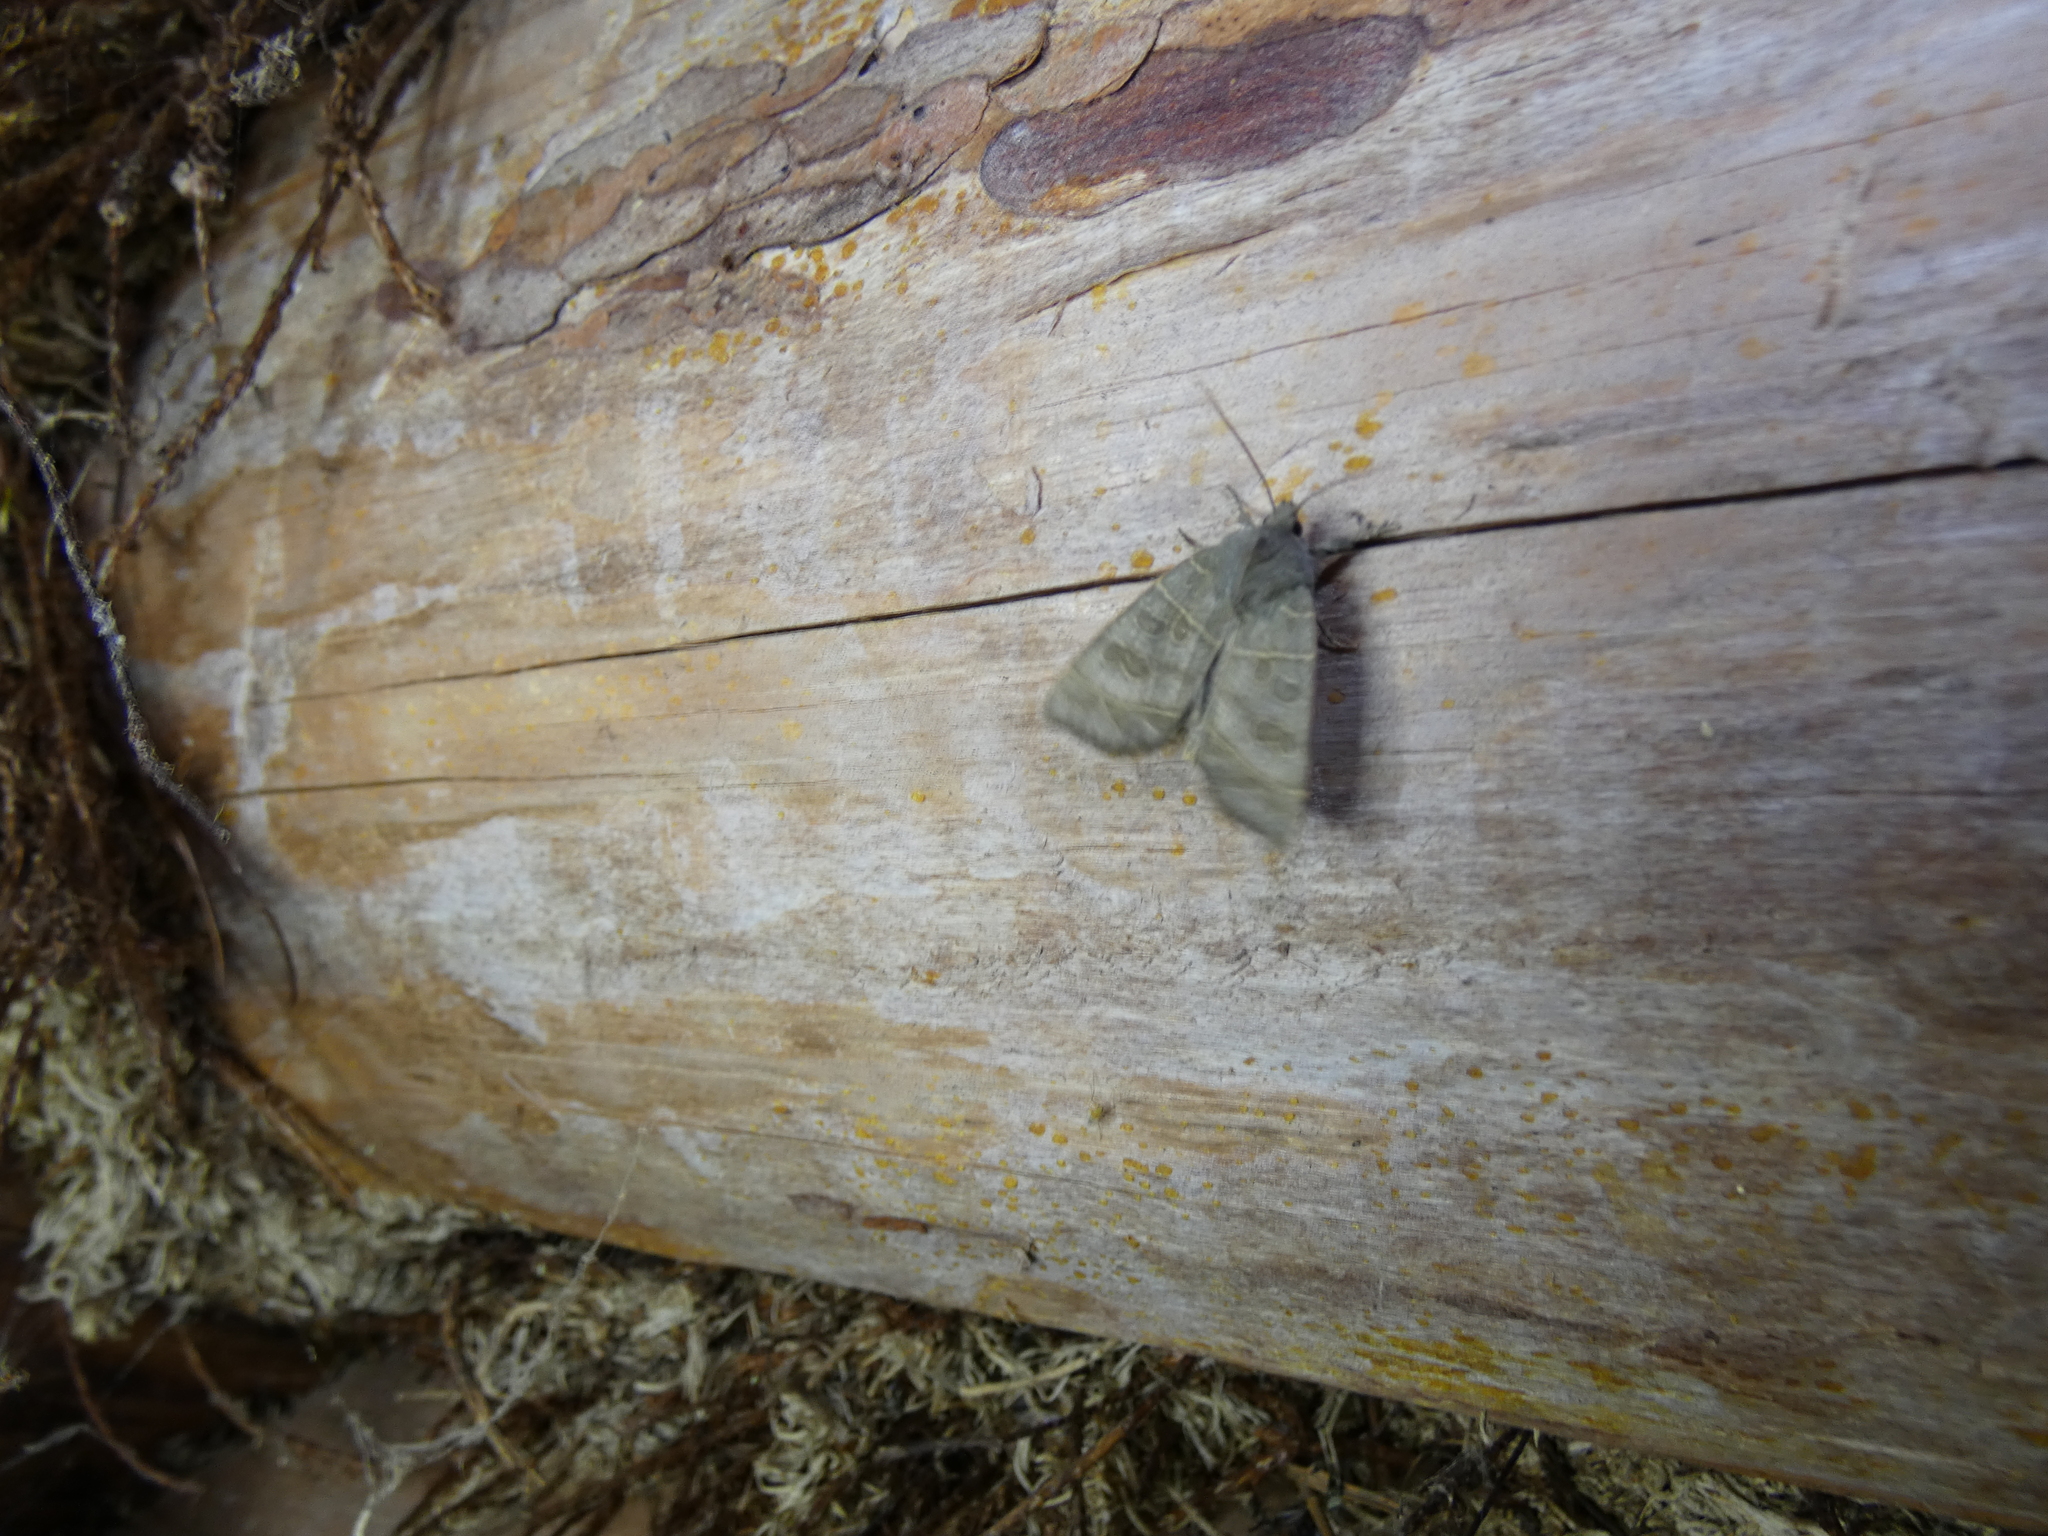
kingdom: Animalia
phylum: Arthropoda
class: Insecta
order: Lepidoptera
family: Noctuidae
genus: Ipimorpha
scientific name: Ipimorpha subtusa
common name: Olive
